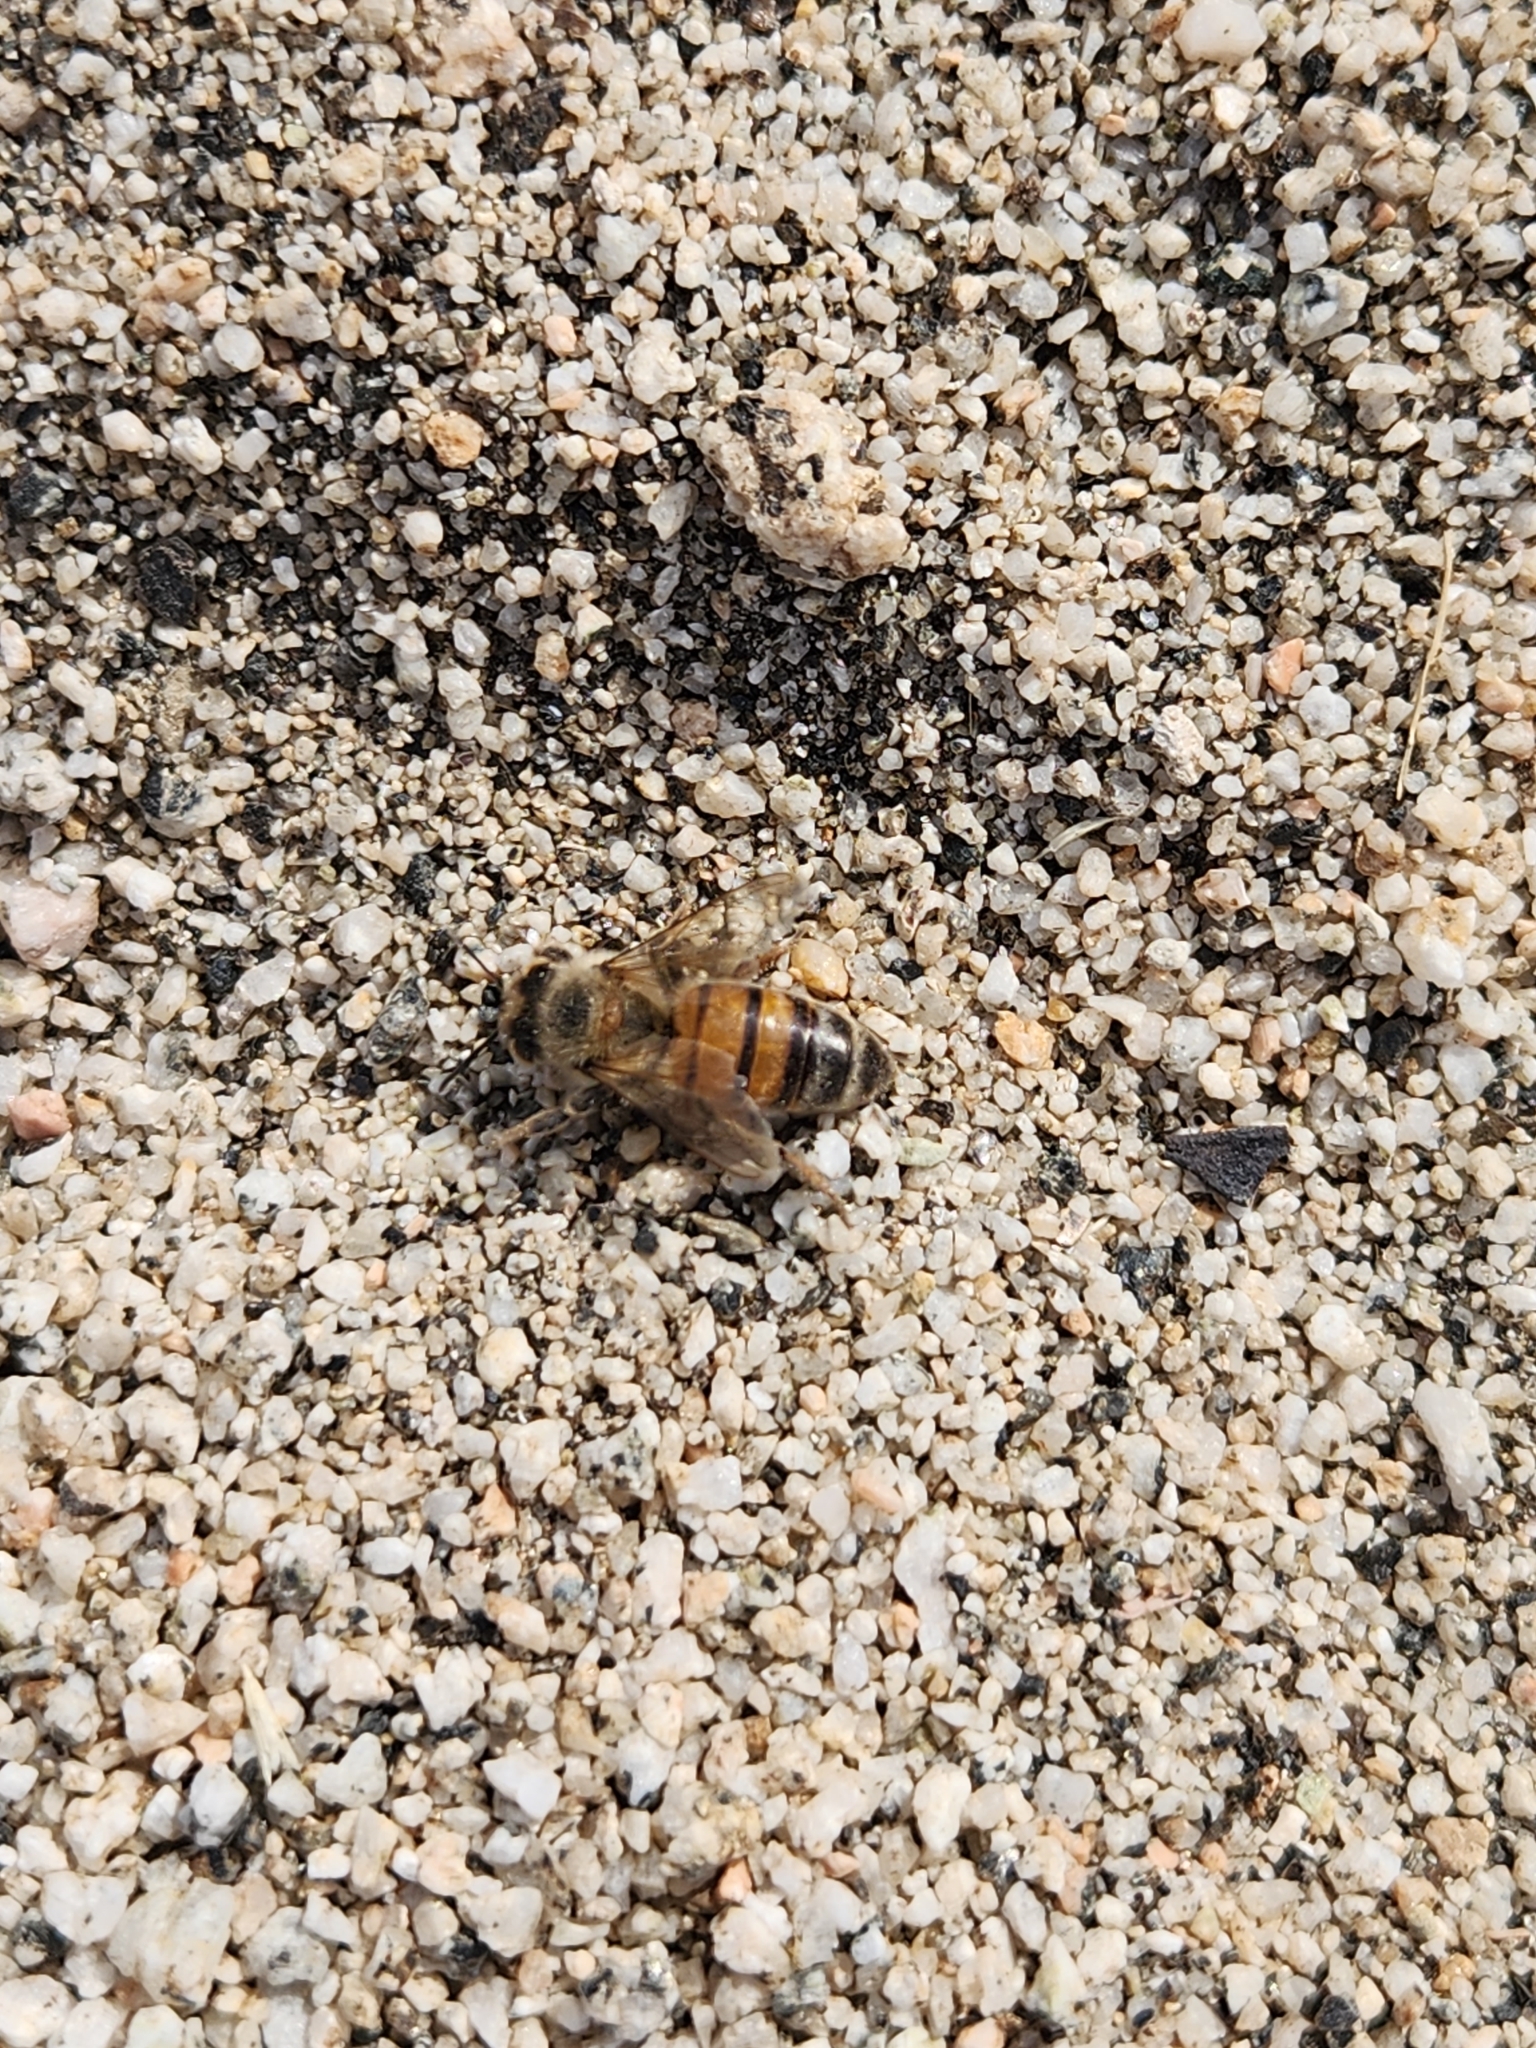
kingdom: Animalia
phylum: Arthropoda
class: Insecta
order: Hymenoptera
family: Apidae
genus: Apis
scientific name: Apis mellifera
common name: Honey bee
